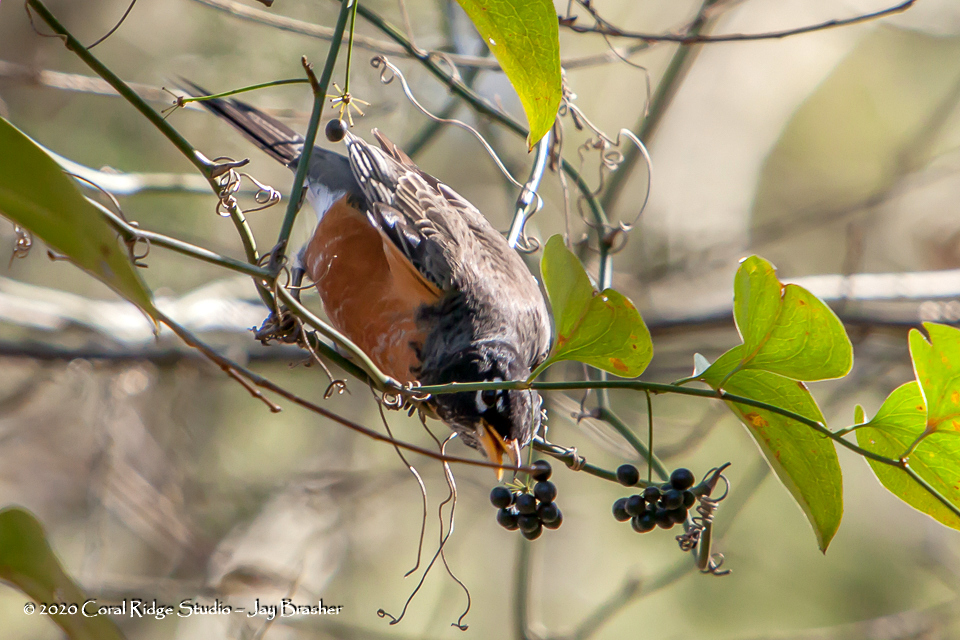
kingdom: Animalia
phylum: Chordata
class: Aves
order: Passeriformes
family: Turdidae
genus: Turdus
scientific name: Turdus migratorius
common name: American robin
